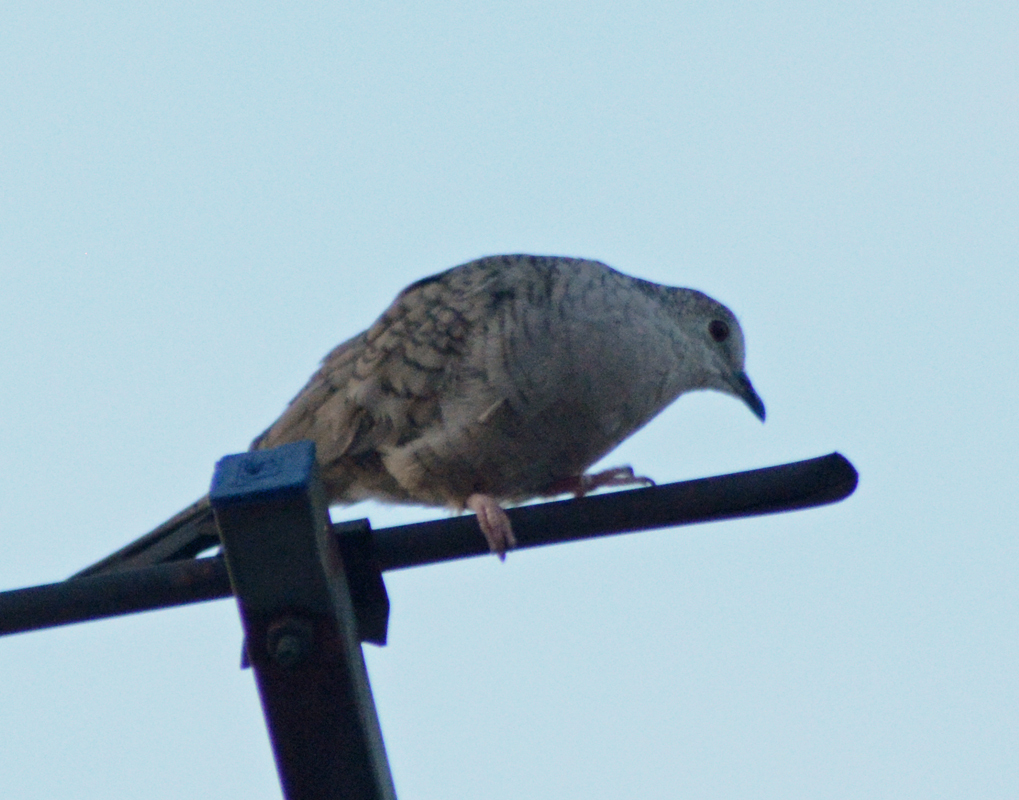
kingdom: Animalia
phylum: Chordata
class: Aves
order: Columbiformes
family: Columbidae
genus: Columbina
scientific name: Columbina inca
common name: Inca dove
